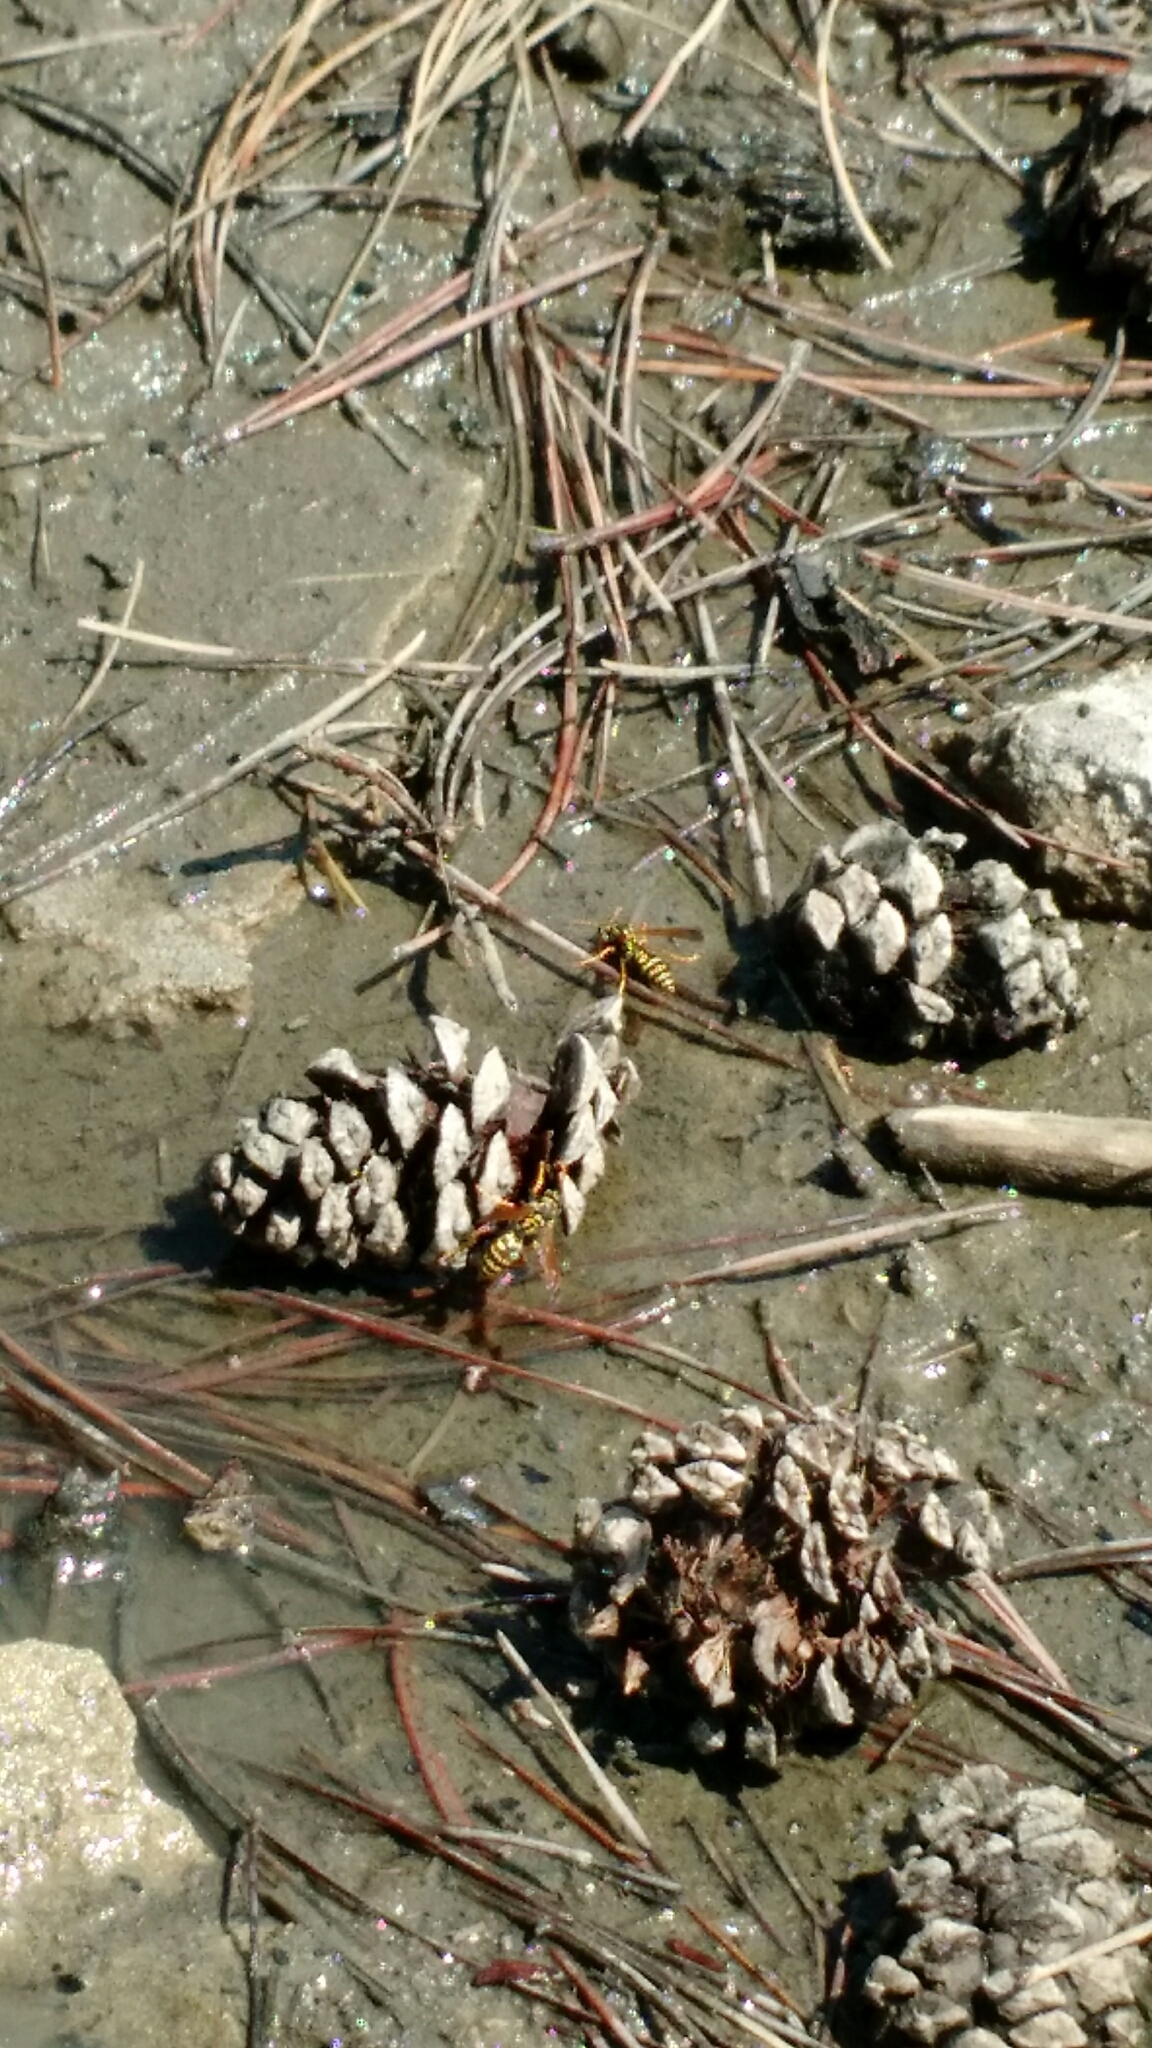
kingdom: Animalia
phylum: Arthropoda
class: Insecta
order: Hymenoptera
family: Eumenidae
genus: Polistes
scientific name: Polistes dominula
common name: Paper wasp
